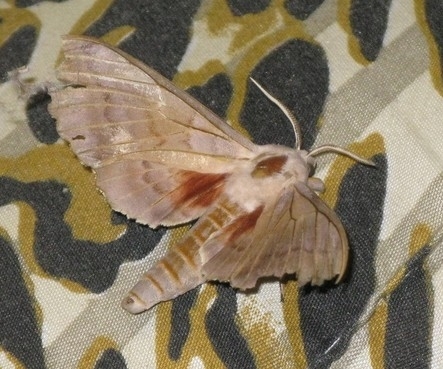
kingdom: Animalia
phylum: Arthropoda
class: Insecta
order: Lepidoptera
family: Sphingidae
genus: Laothoe
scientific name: Laothoe populi
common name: Poplar hawk-moth
